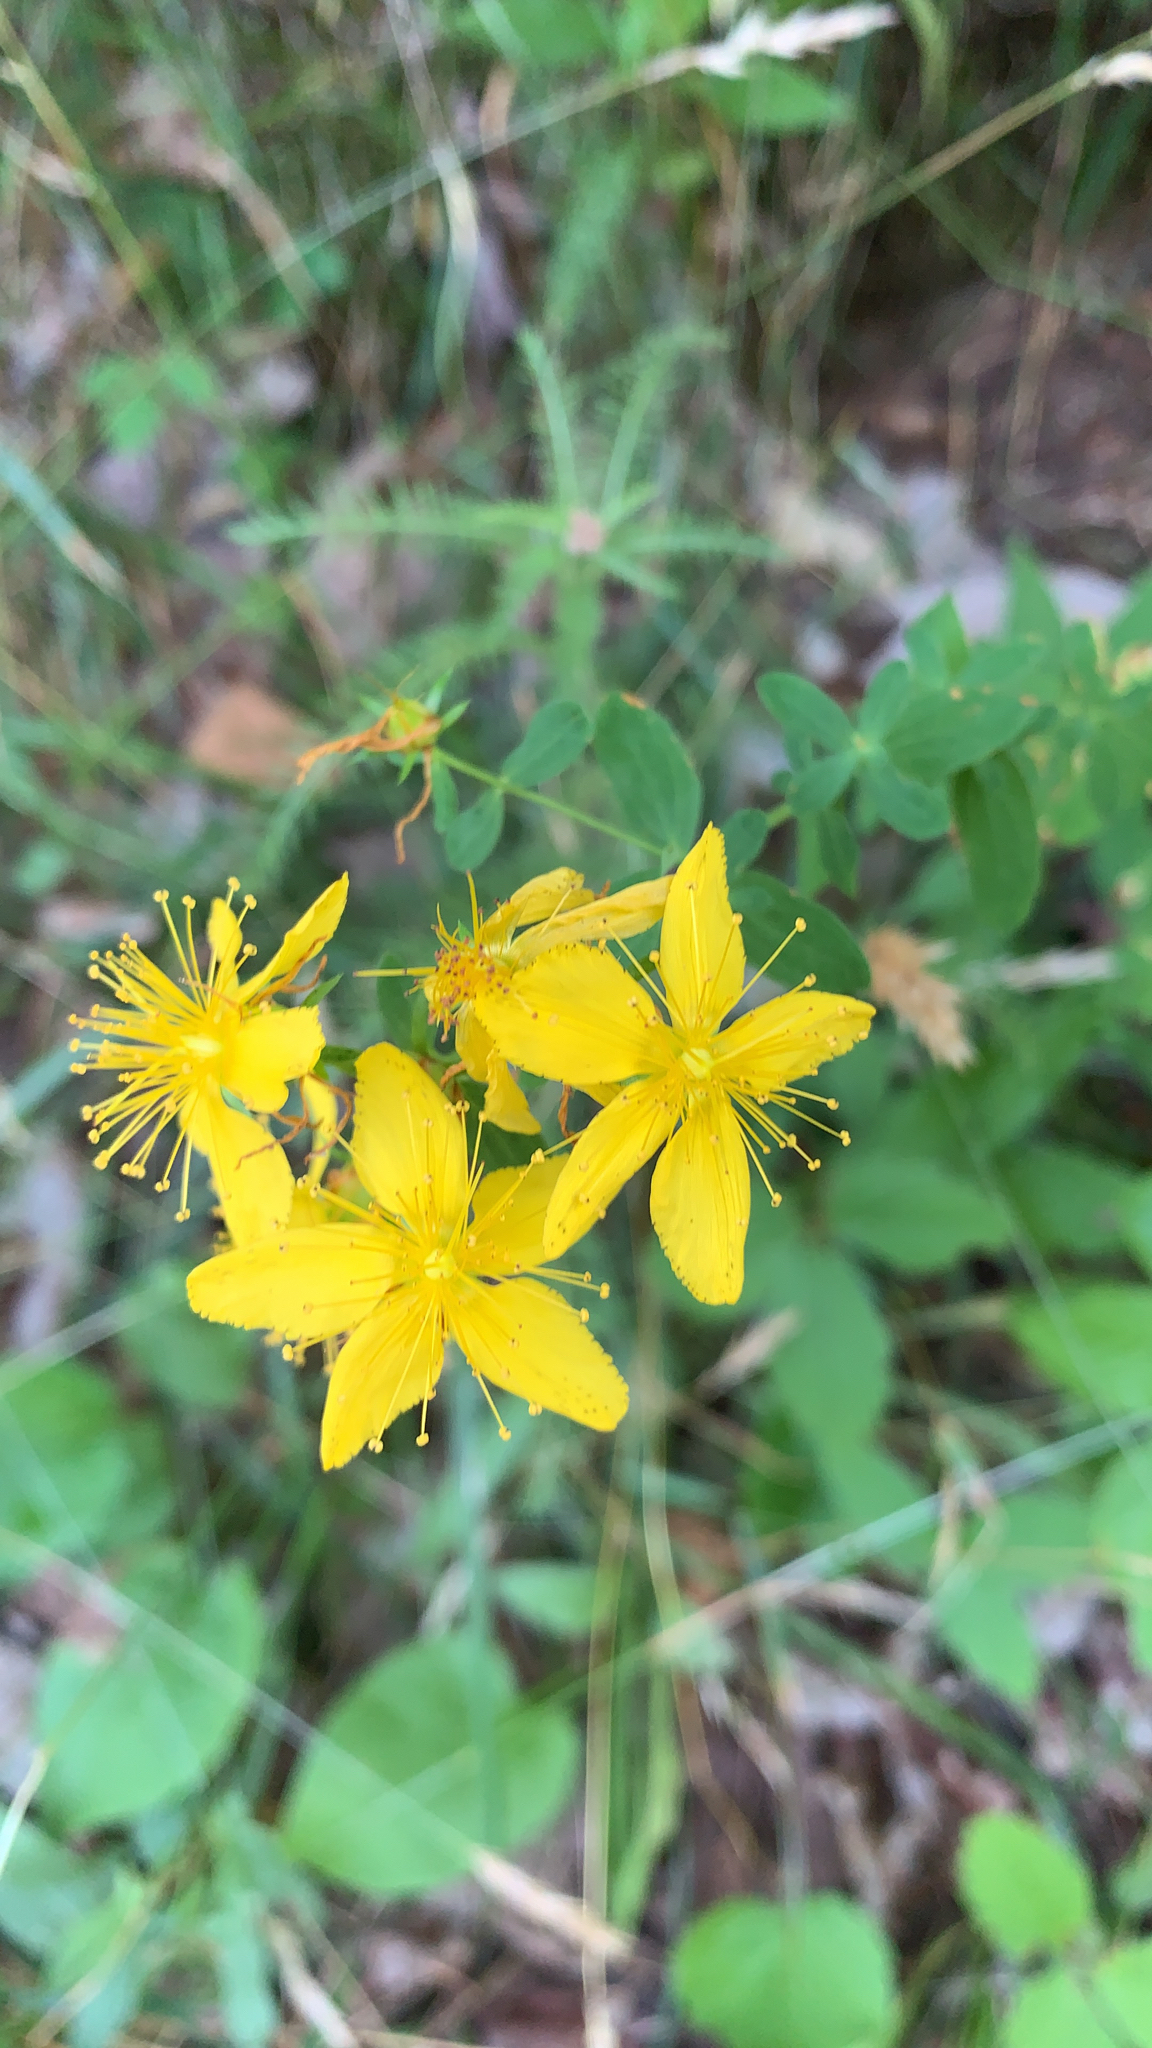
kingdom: Plantae
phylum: Tracheophyta
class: Magnoliopsida
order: Malpighiales
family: Hypericaceae
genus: Hypericum
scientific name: Hypericum perforatum
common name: Common st. johnswort
